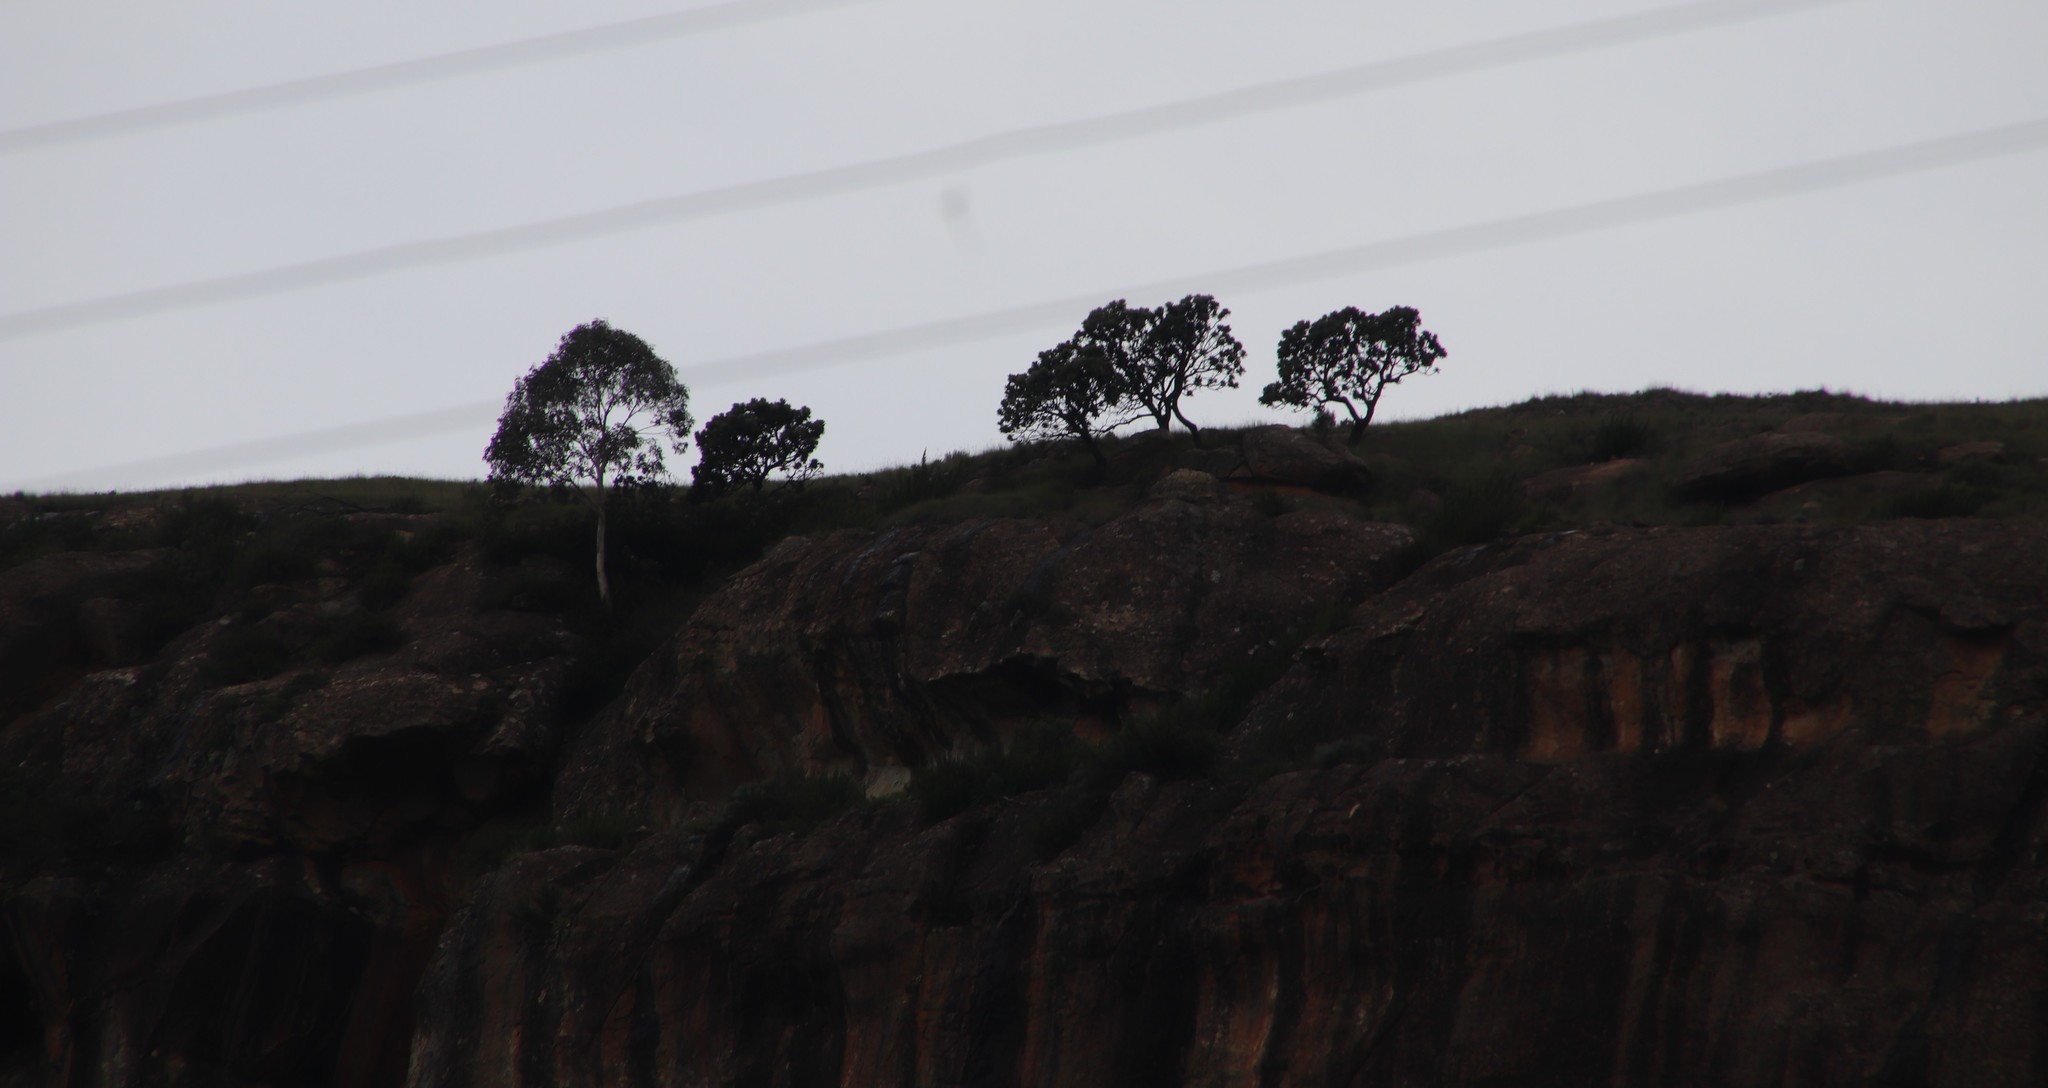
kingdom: Plantae
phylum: Tracheophyta
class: Magnoliopsida
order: Proteales
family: Proteaceae
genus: Protea
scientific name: Protea roupelliae
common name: Silver sugarbush
